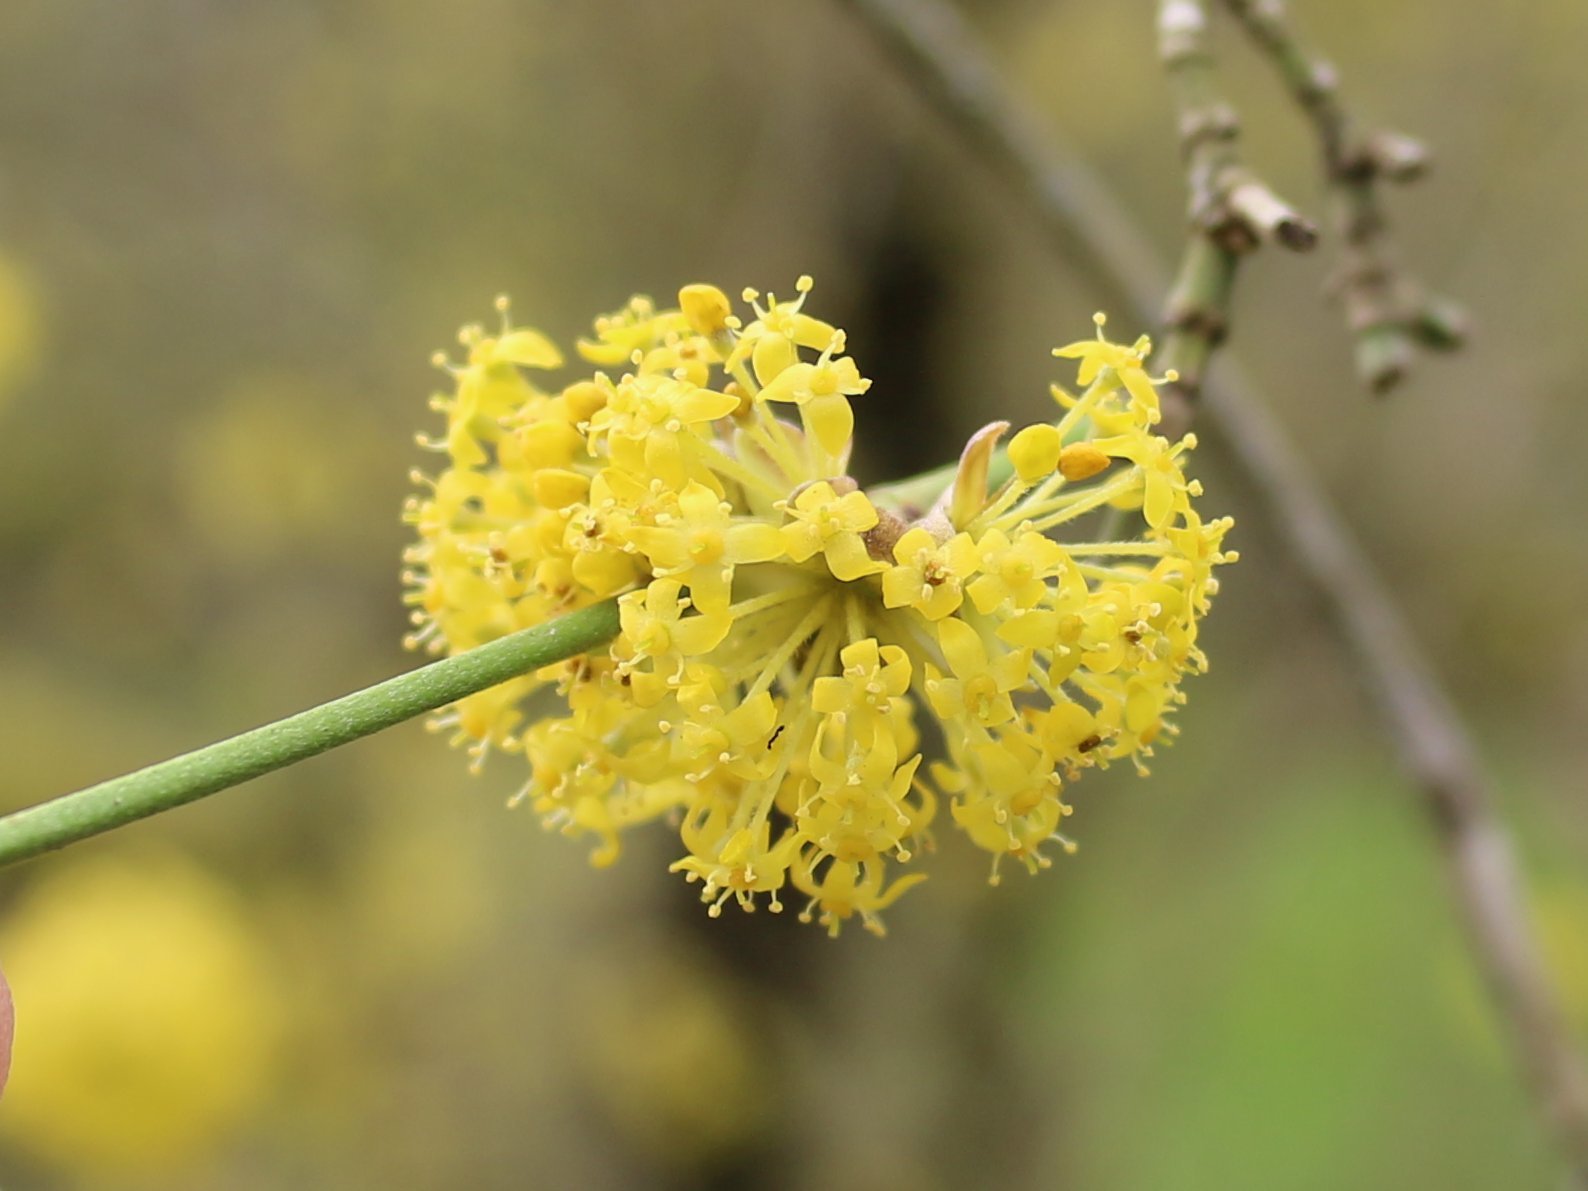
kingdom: Plantae
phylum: Tracheophyta
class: Magnoliopsida
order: Cornales
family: Cornaceae
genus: Cornus
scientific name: Cornus mas
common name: Cornelian-cherry
